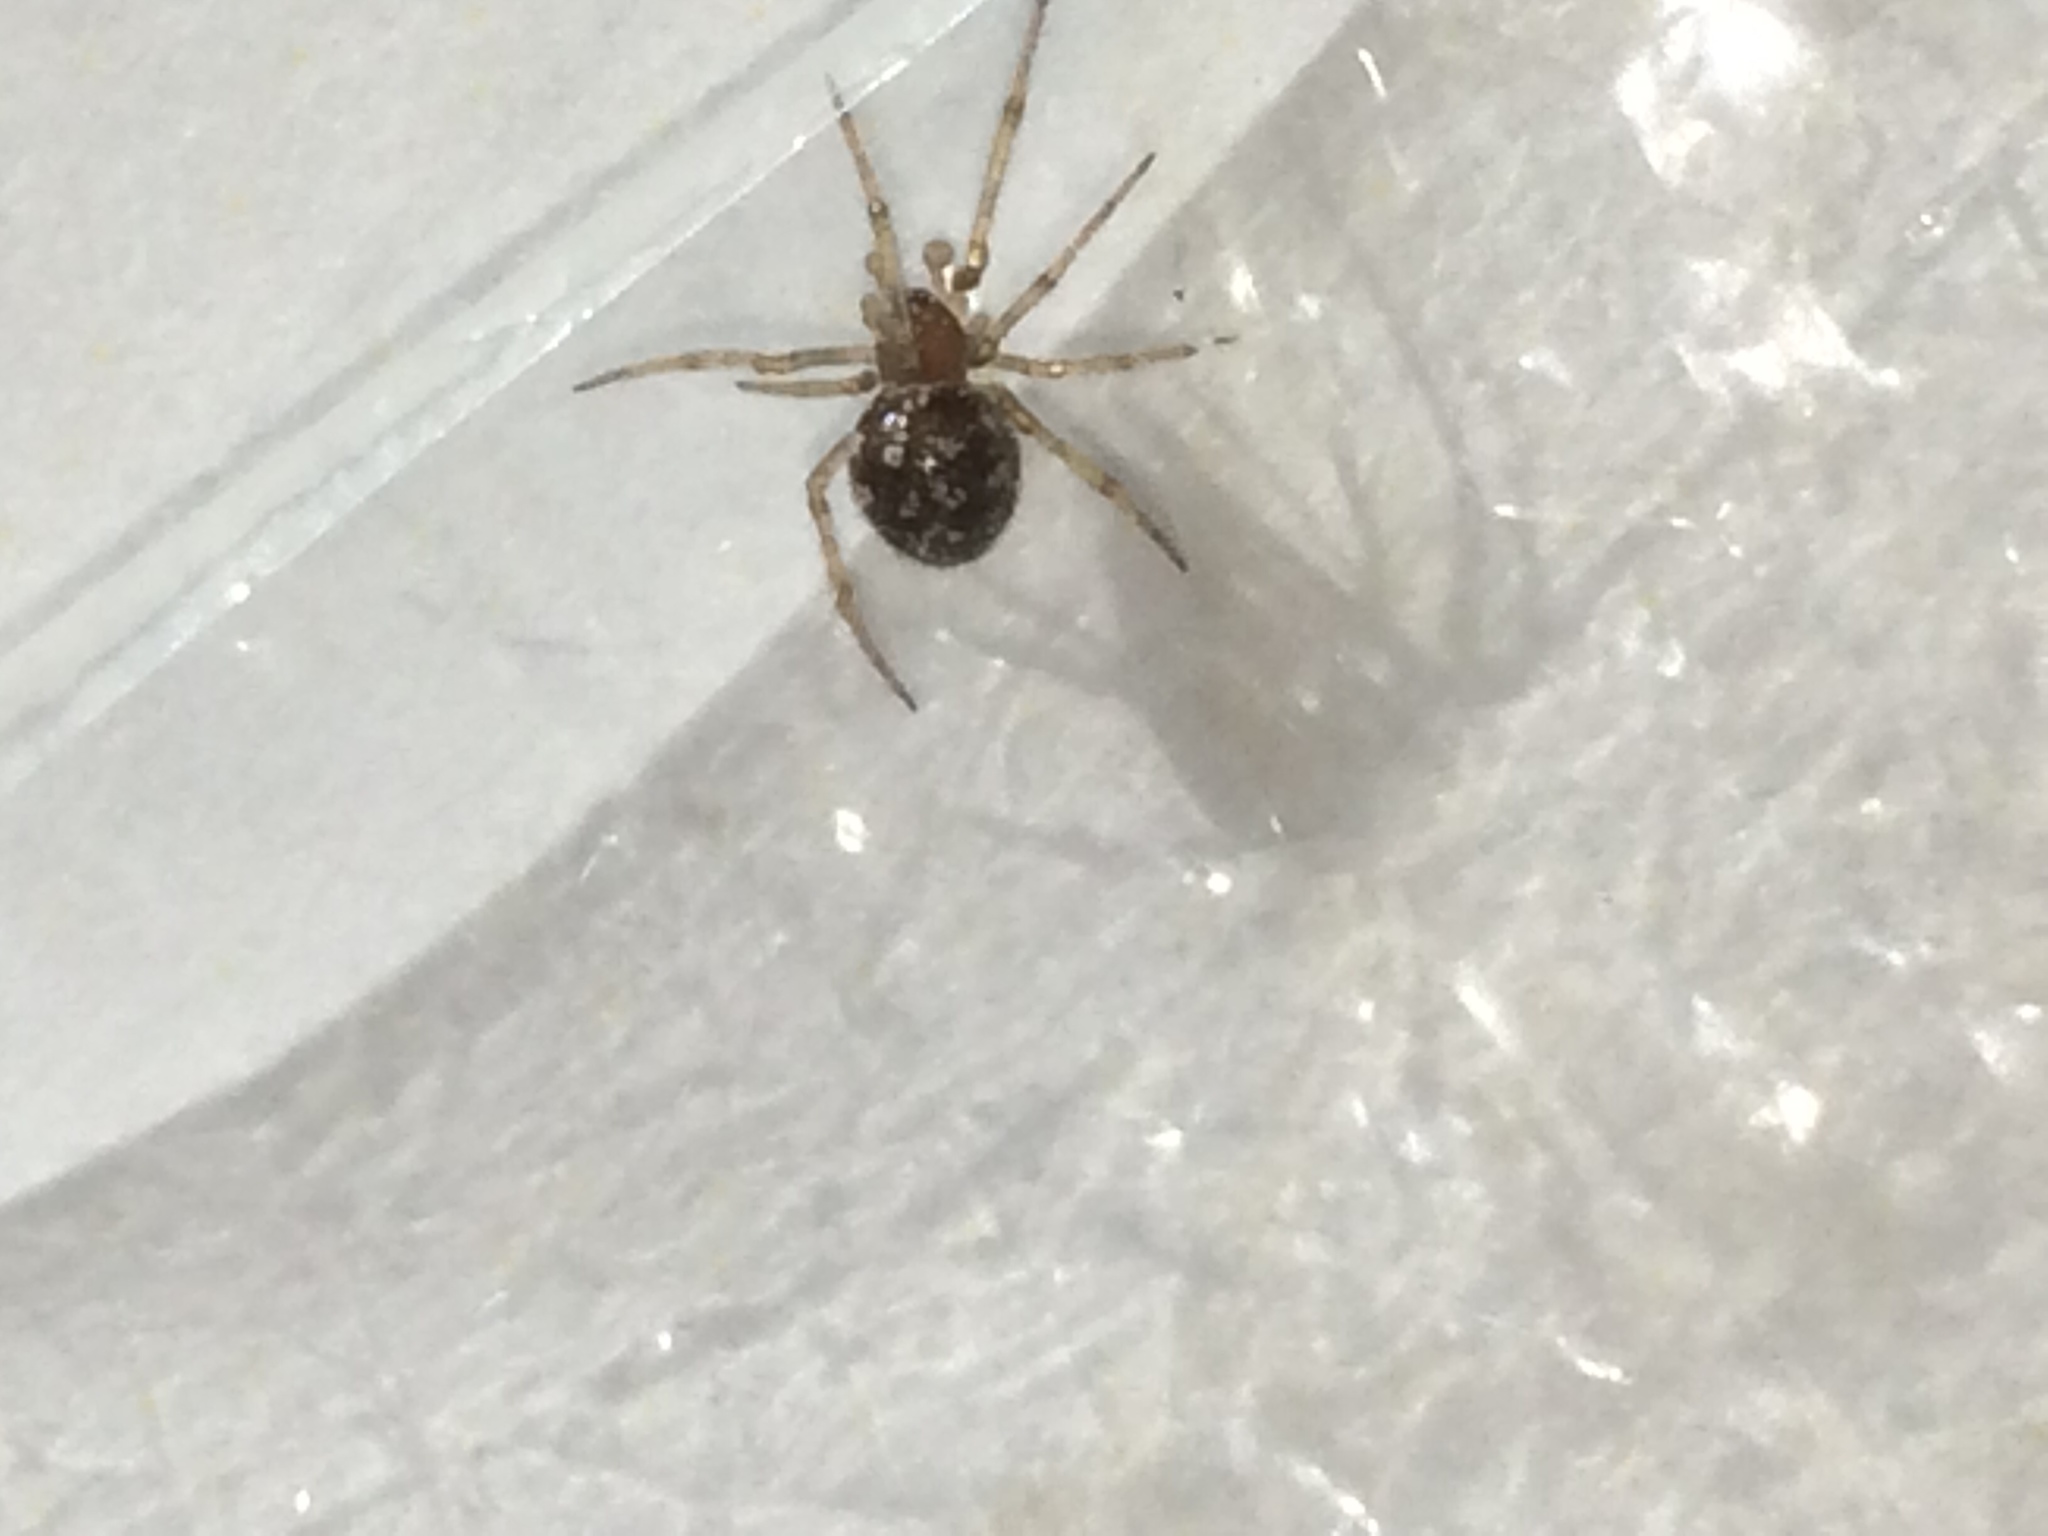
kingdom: Animalia
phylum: Arthropoda
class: Arachnida
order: Araneae
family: Theridiidae
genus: Steatoda
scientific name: Steatoda triangulosa
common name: Triangulate bud spider
